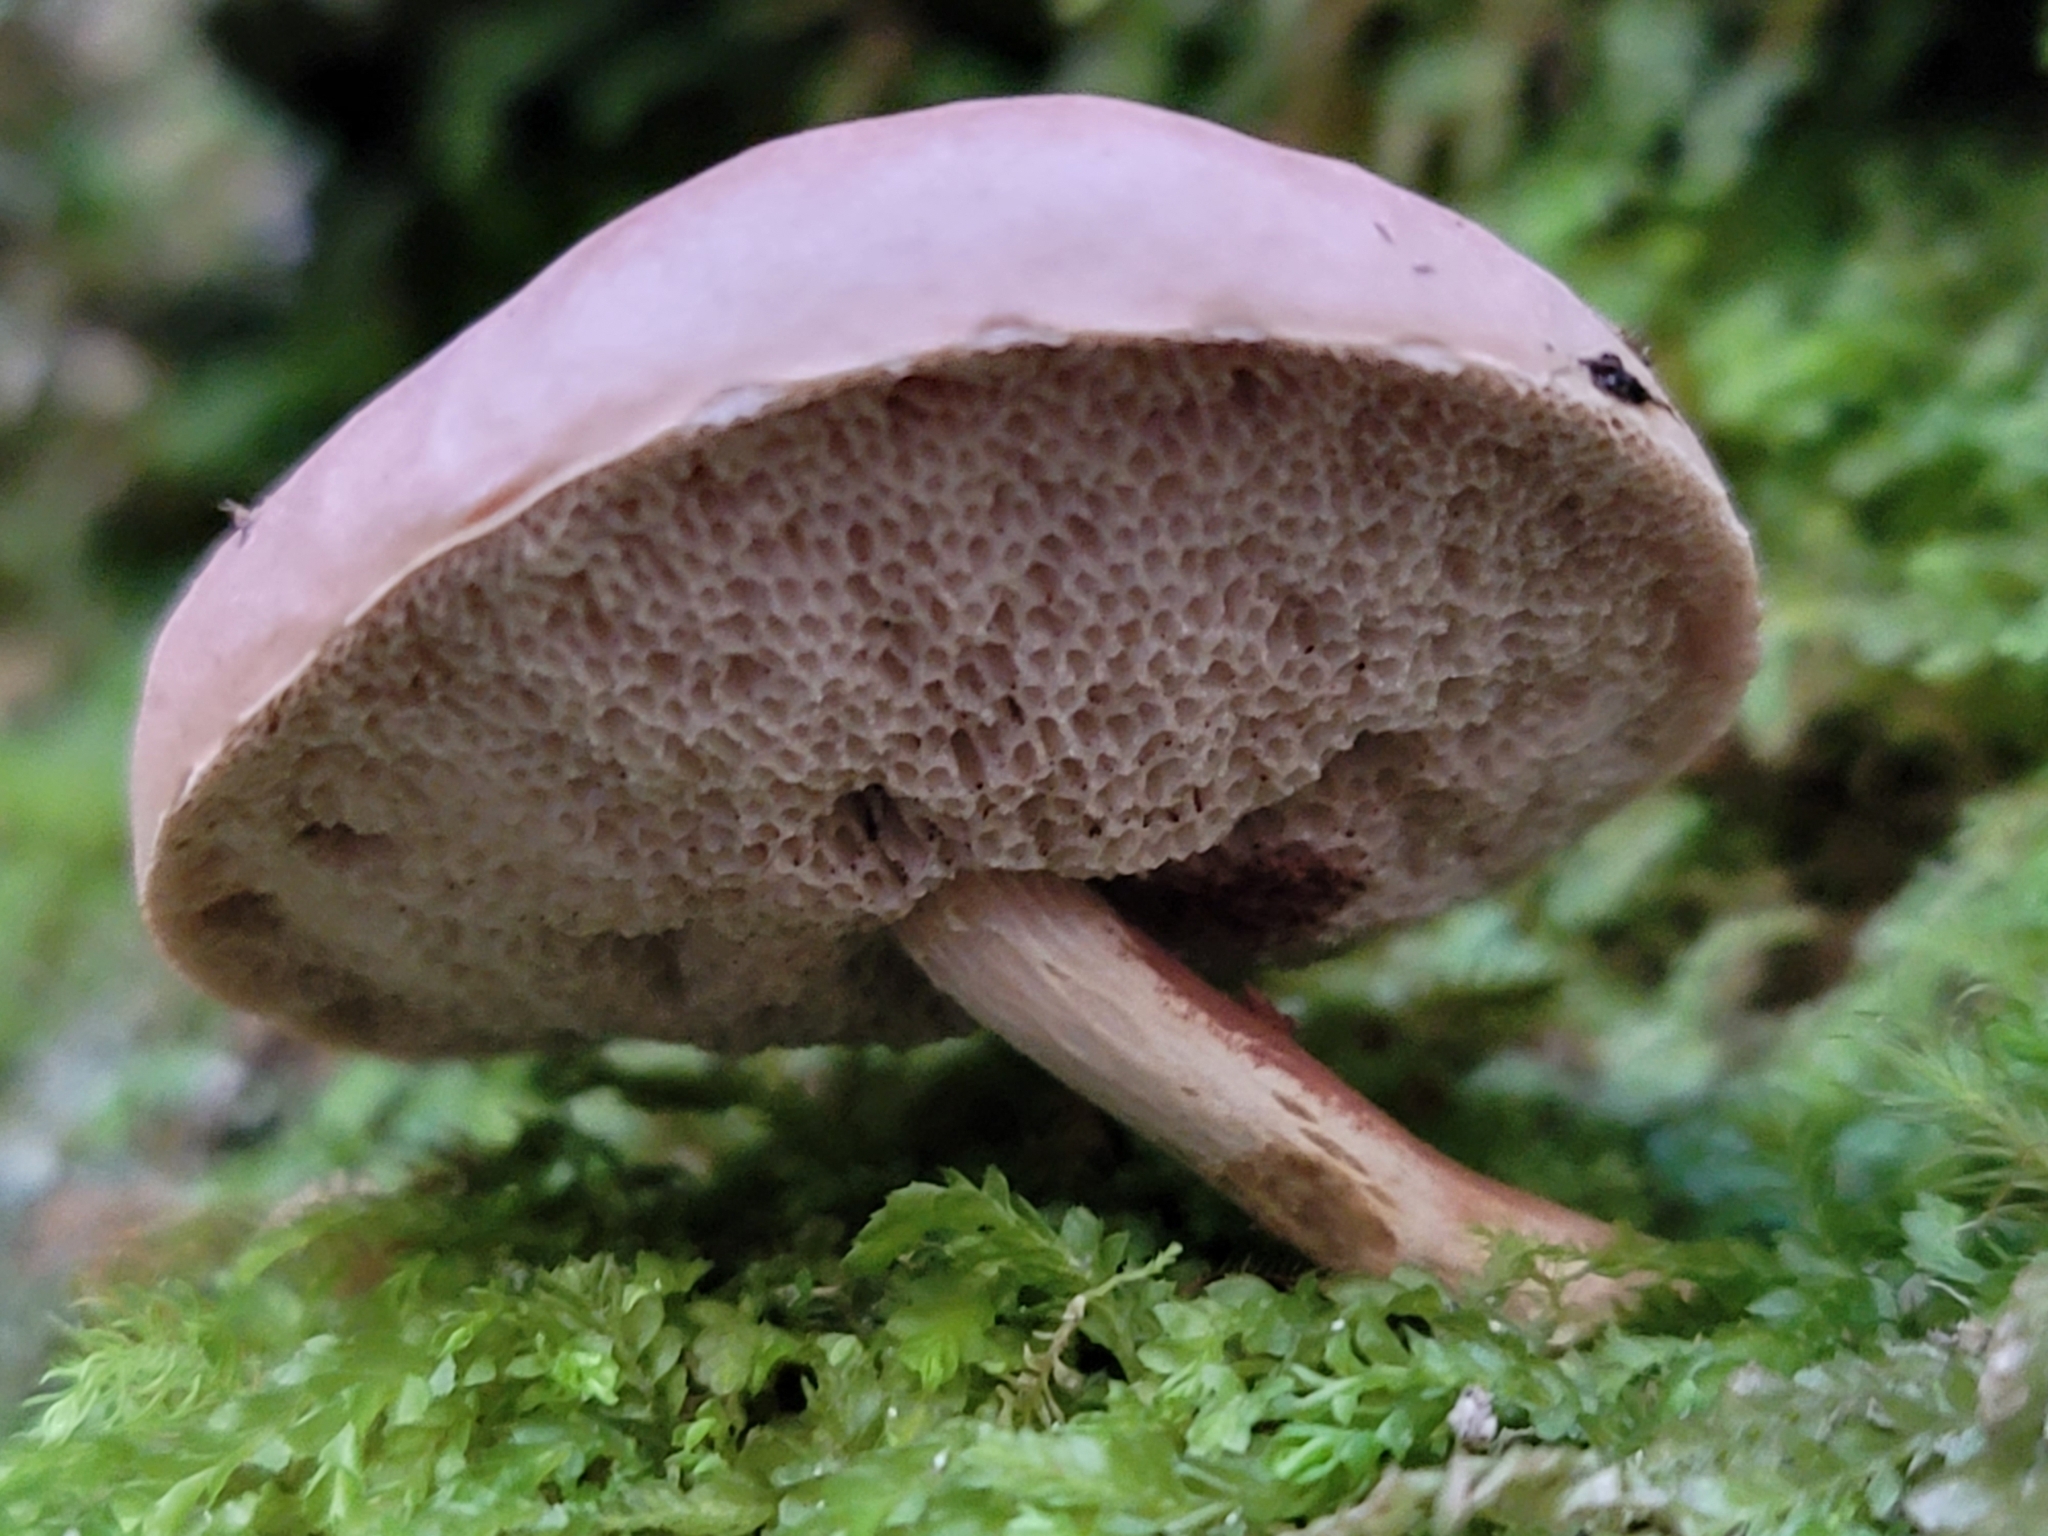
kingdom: Fungi
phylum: Basidiomycota
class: Agaricomycetes
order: Boletales
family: Boletaceae
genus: Austroboletus
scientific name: Austroboletus lacunosus
